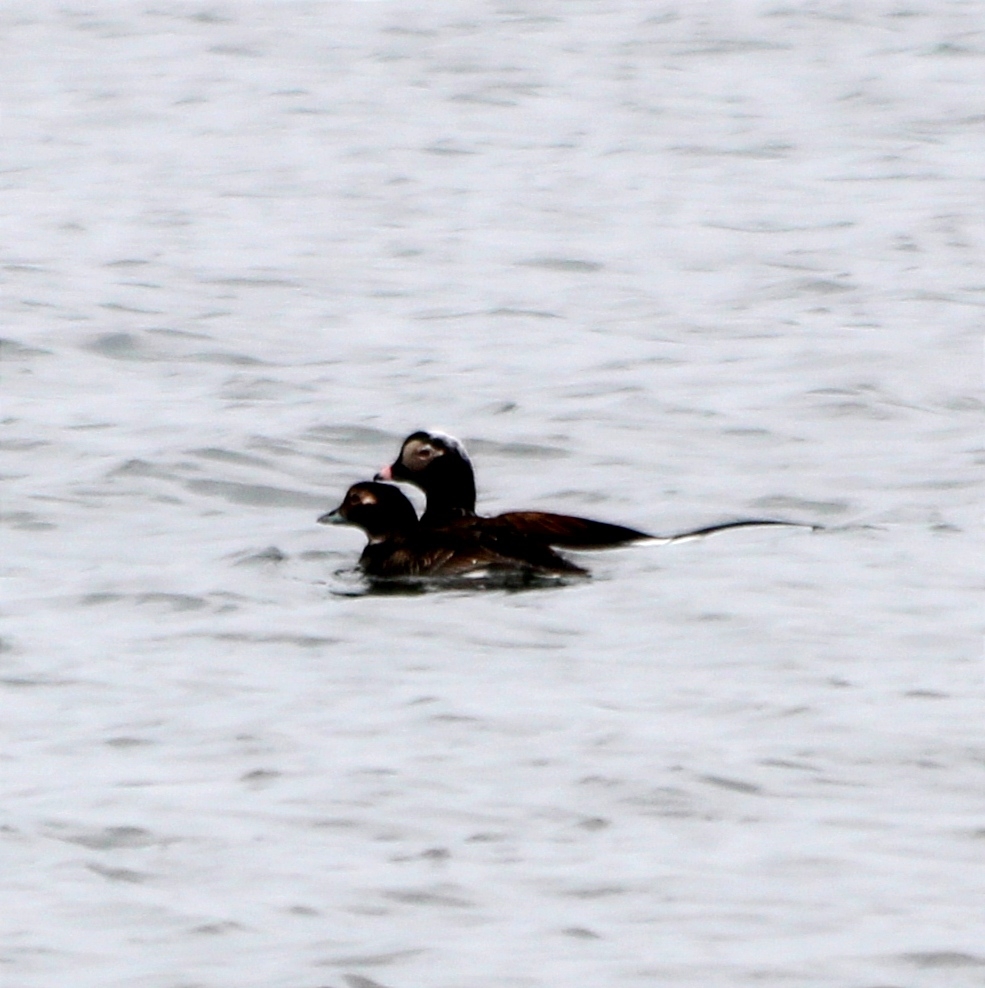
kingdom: Animalia
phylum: Chordata
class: Aves
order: Anseriformes
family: Anatidae
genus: Clangula
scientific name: Clangula hyemalis
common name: Long-tailed duck
